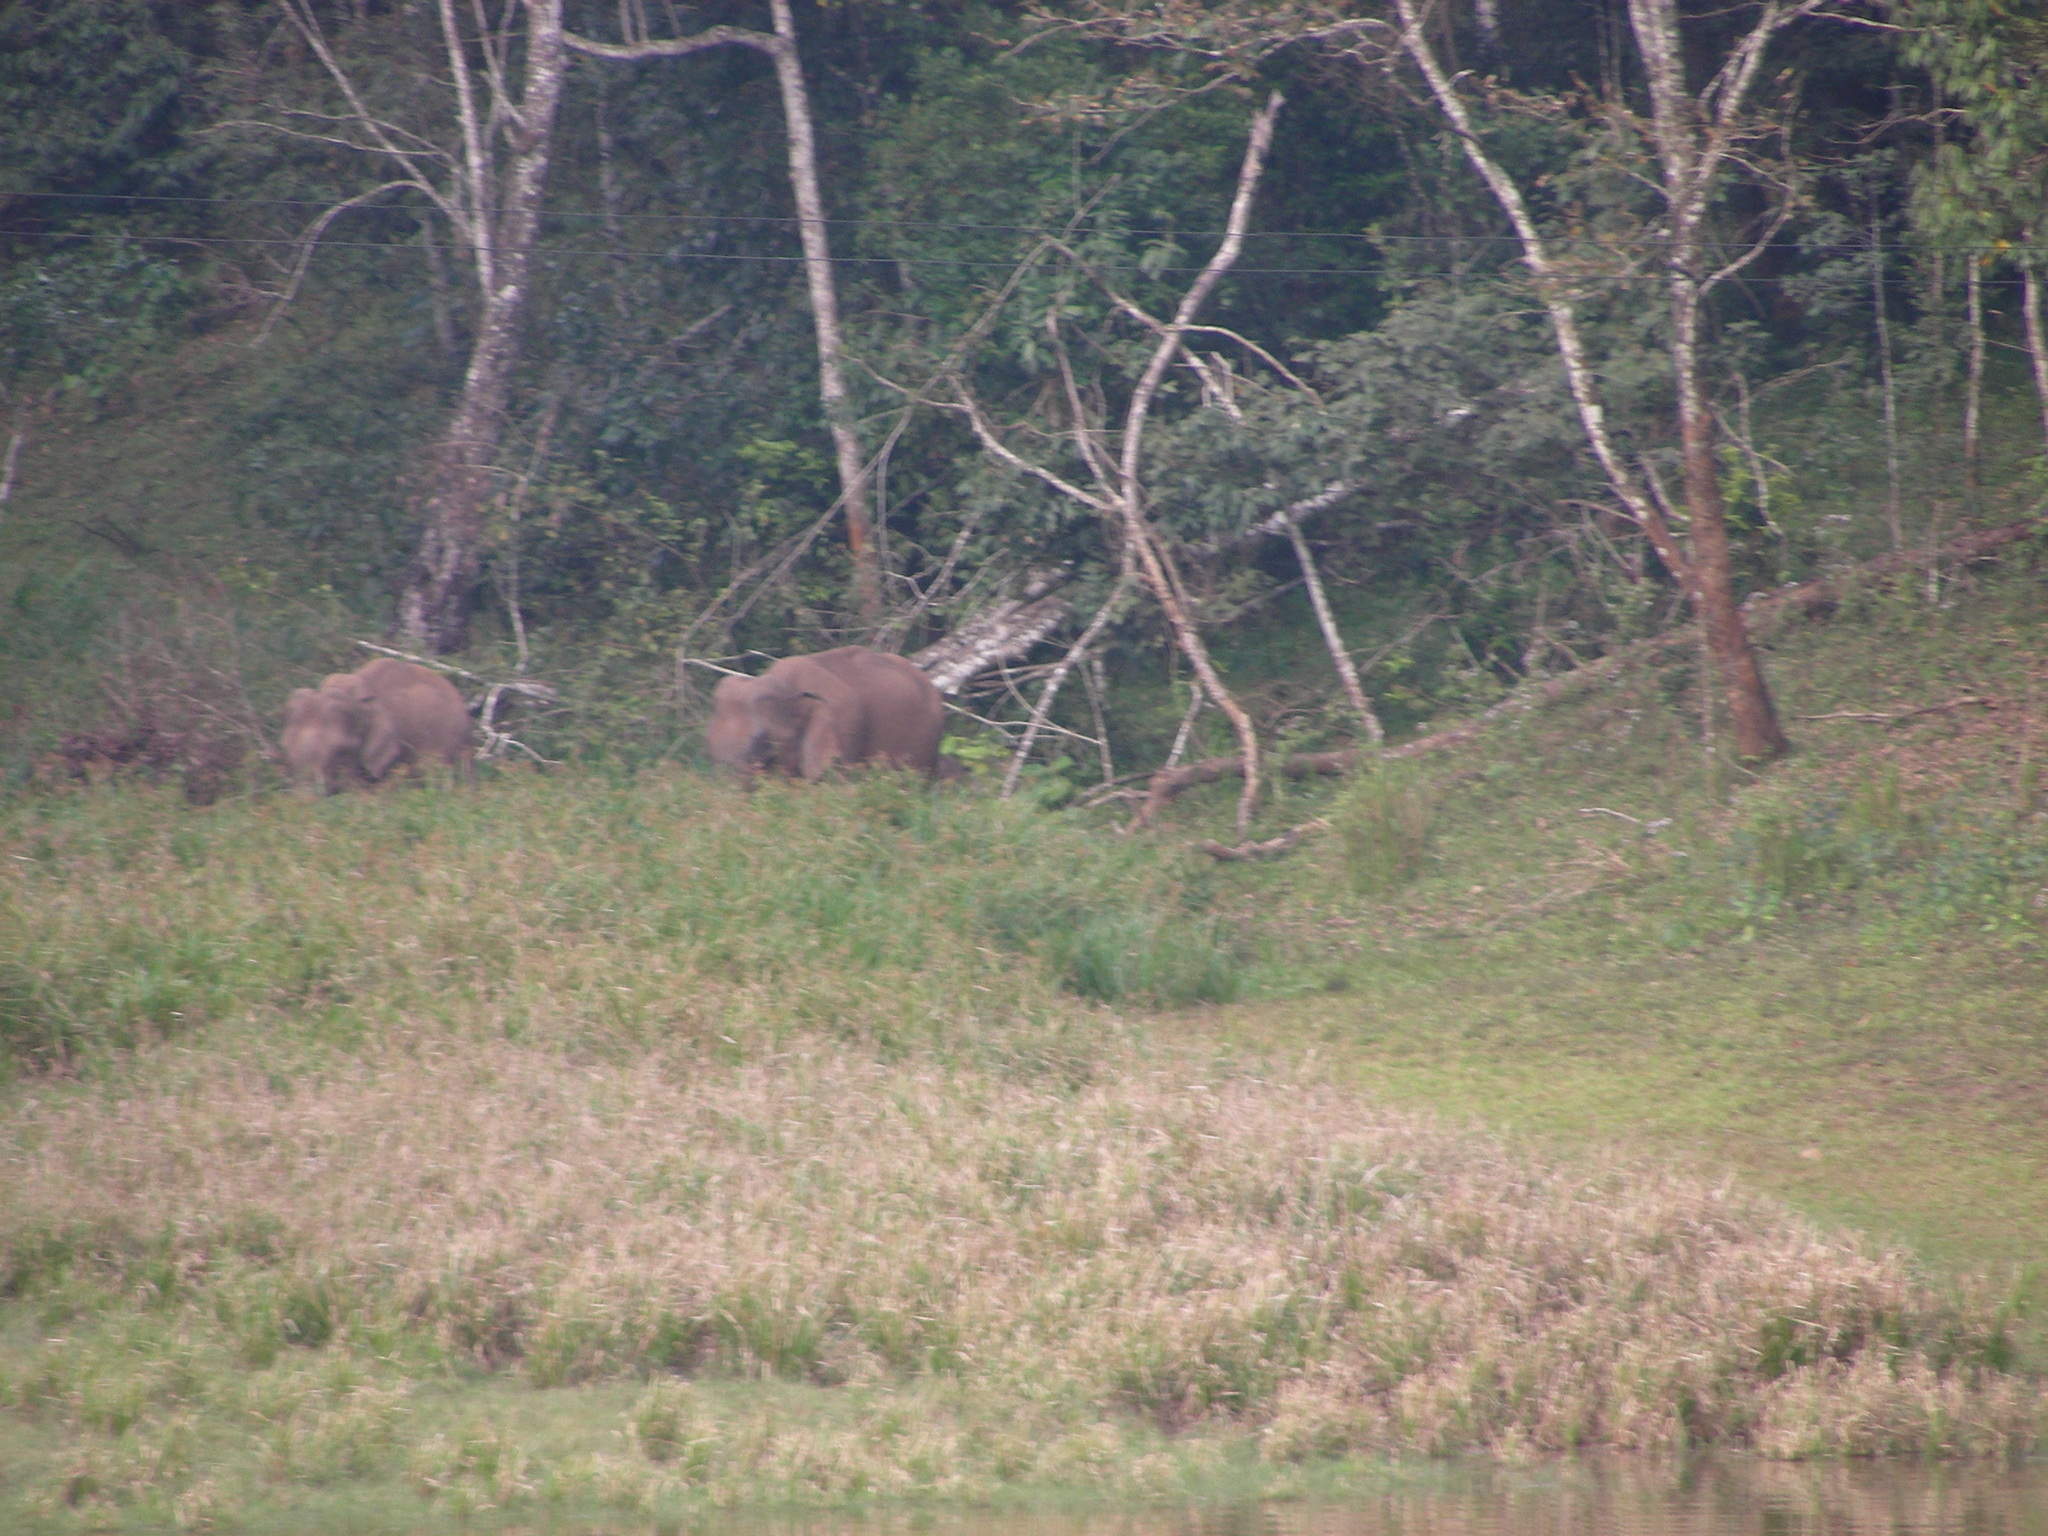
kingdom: Animalia
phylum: Chordata
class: Mammalia
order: Proboscidea
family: Elephantidae
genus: Elephas
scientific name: Elephas maximus
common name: Asian elephant
